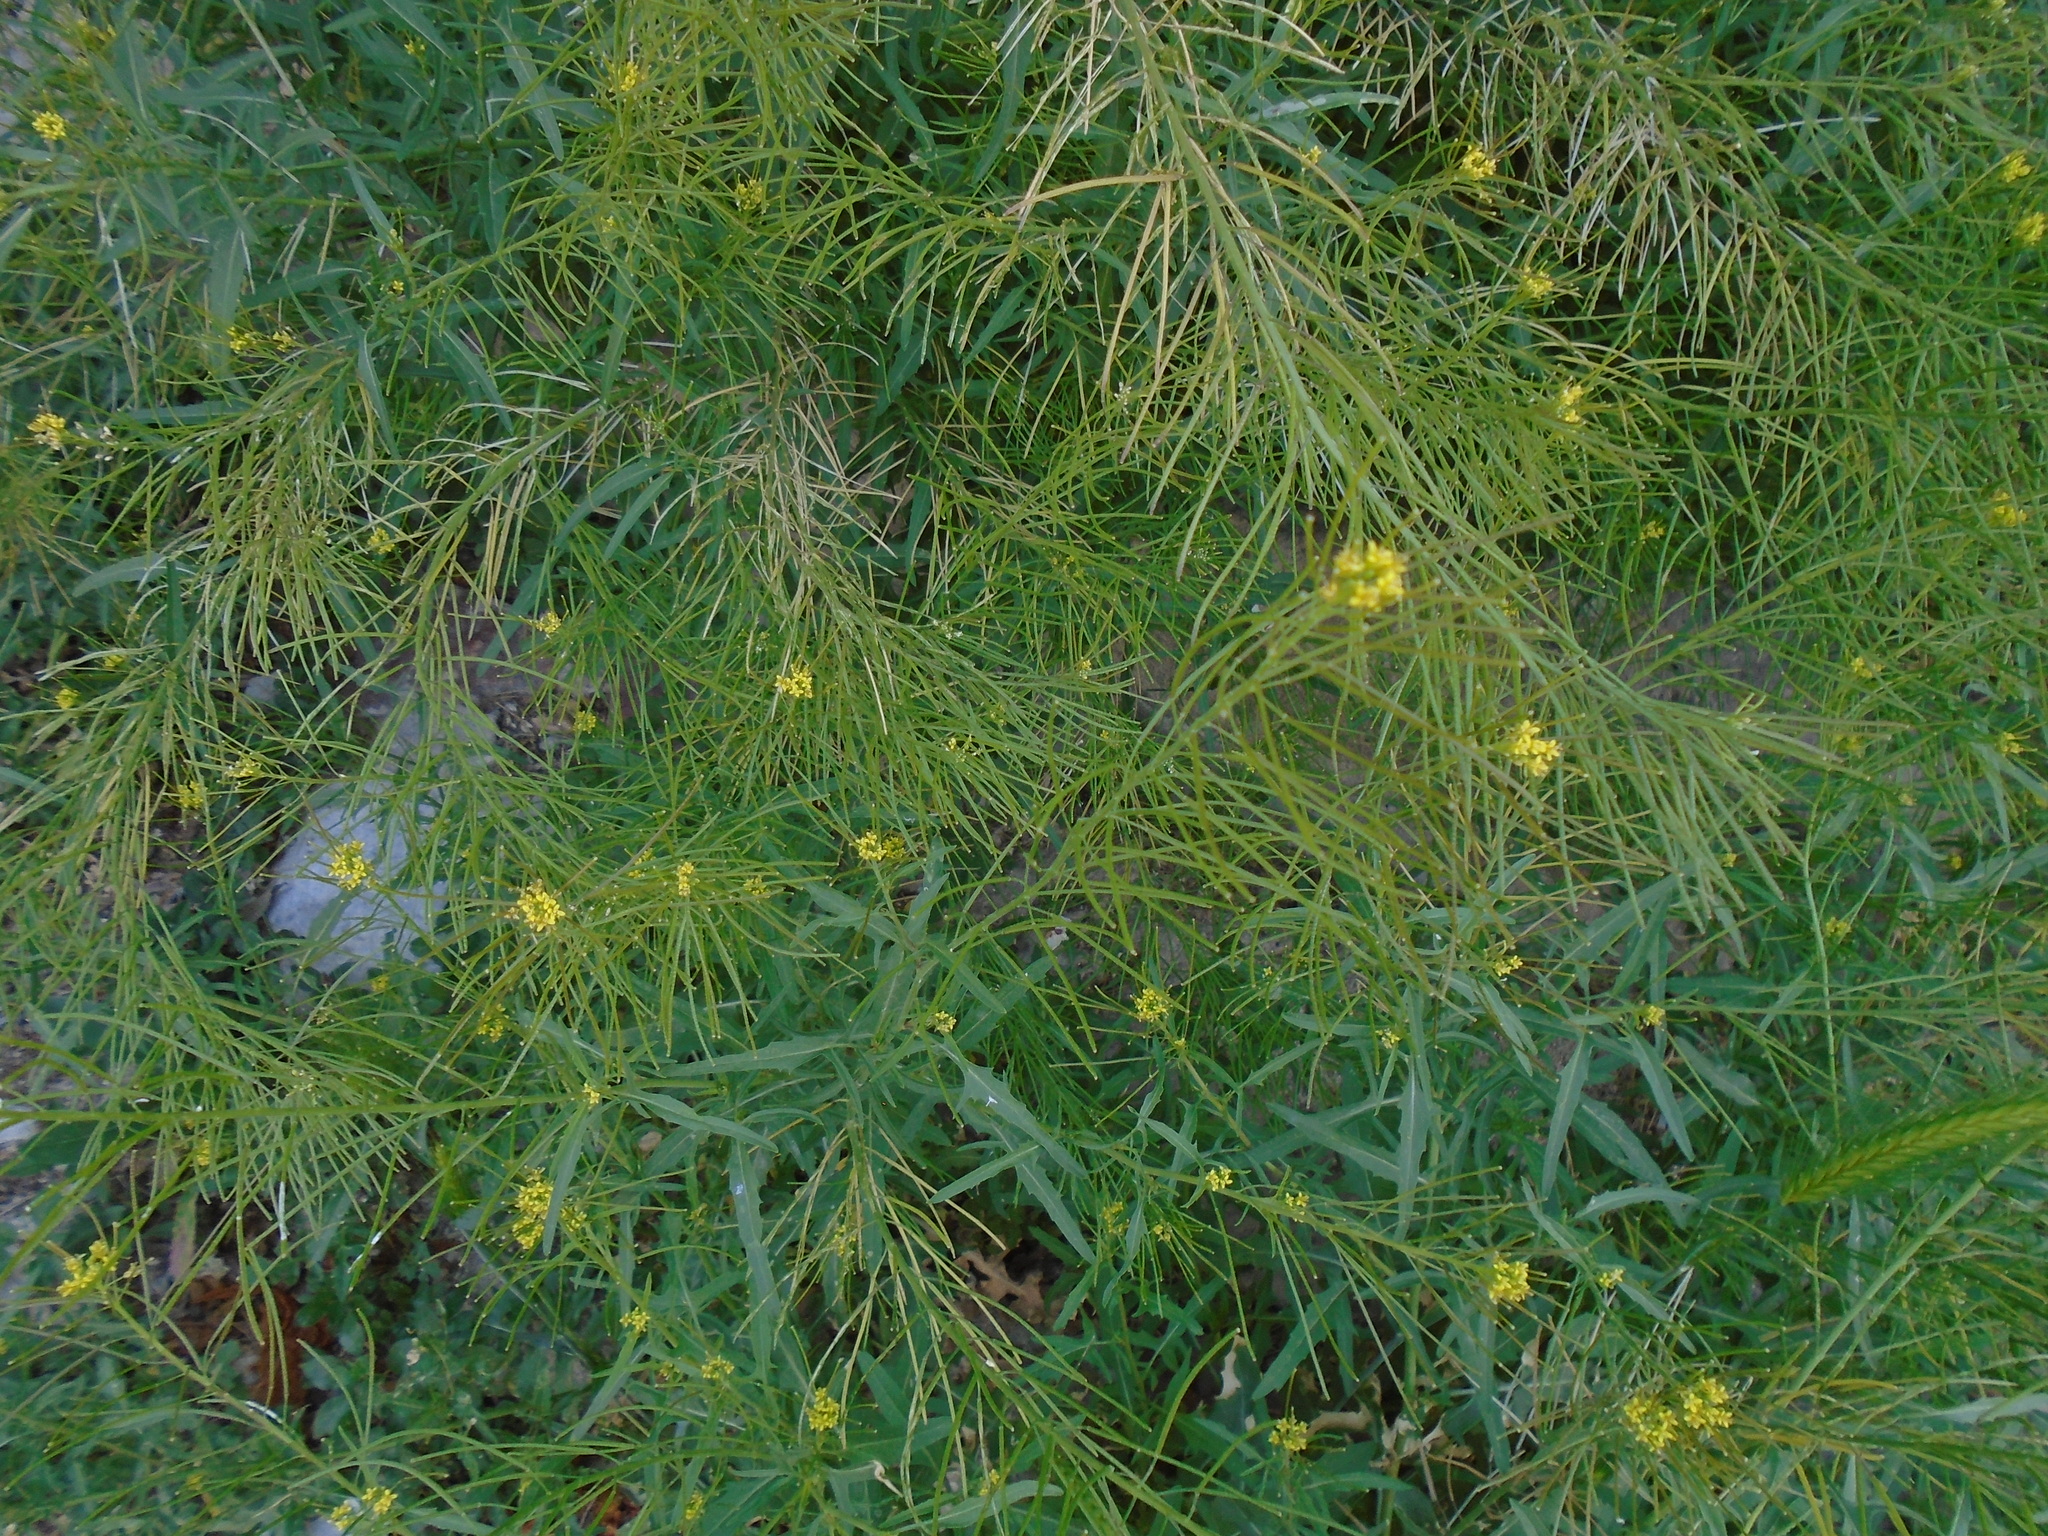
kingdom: Plantae
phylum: Tracheophyta
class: Magnoliopsida
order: Brassicales
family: Brassicaceae
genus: Sisymbrium
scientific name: Sisymbrium irio
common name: London rocket
